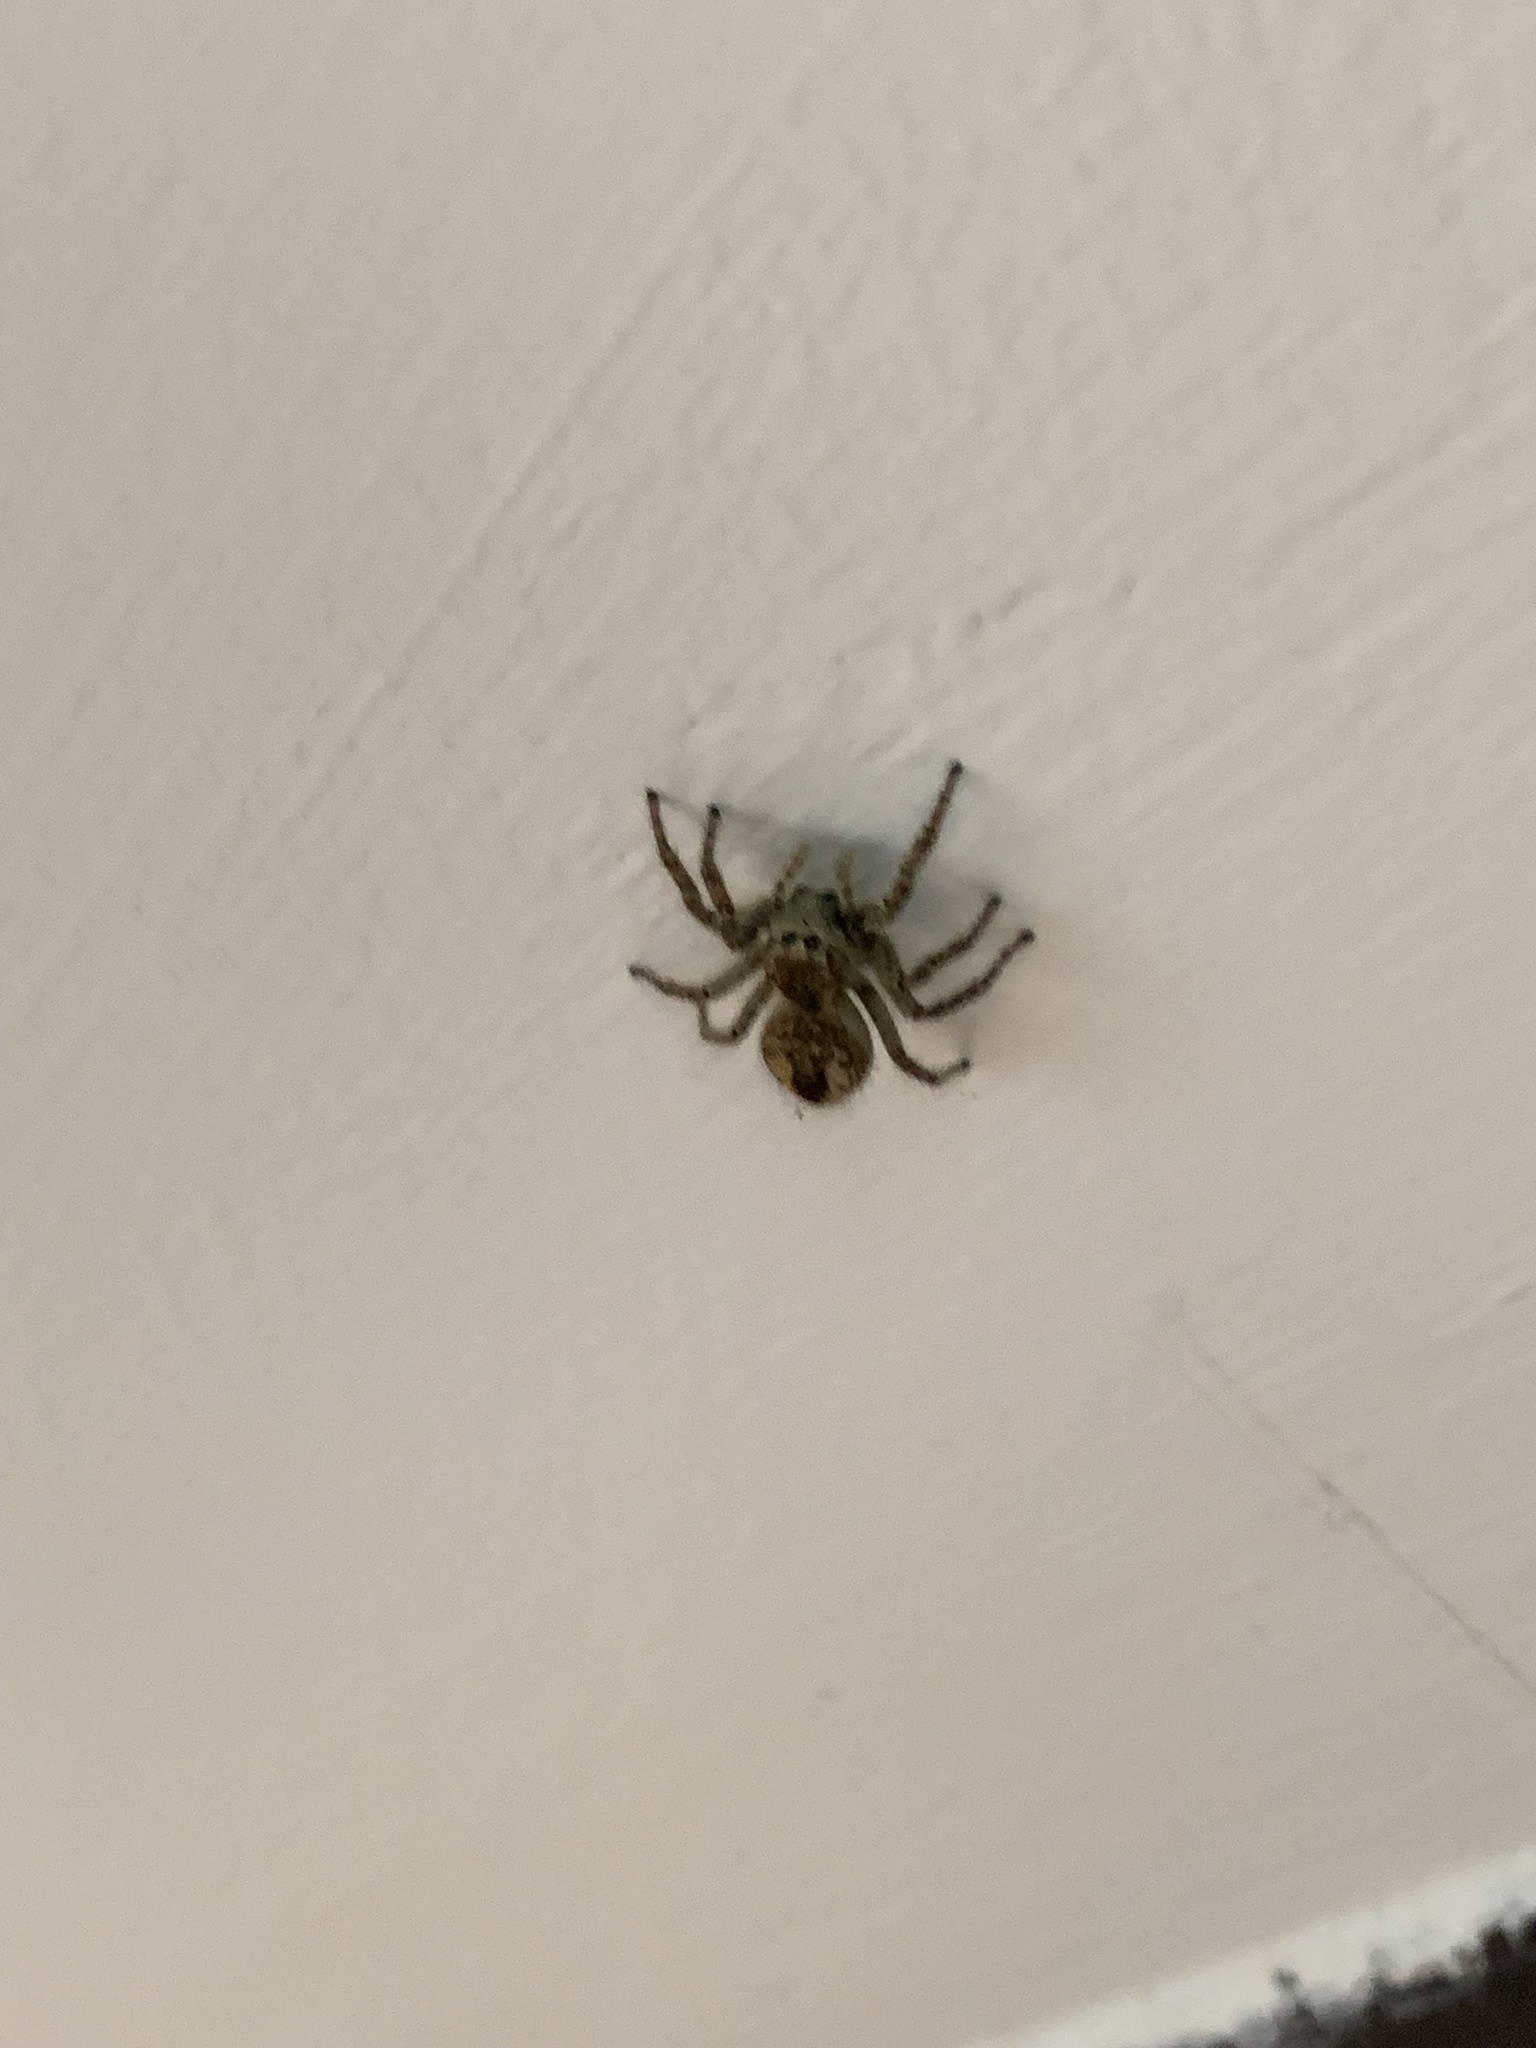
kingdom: Animalia
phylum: Arthropoda
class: Arachnida
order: Araneae
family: Salticidae
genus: Philaeus
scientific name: Philaeus chrysops
